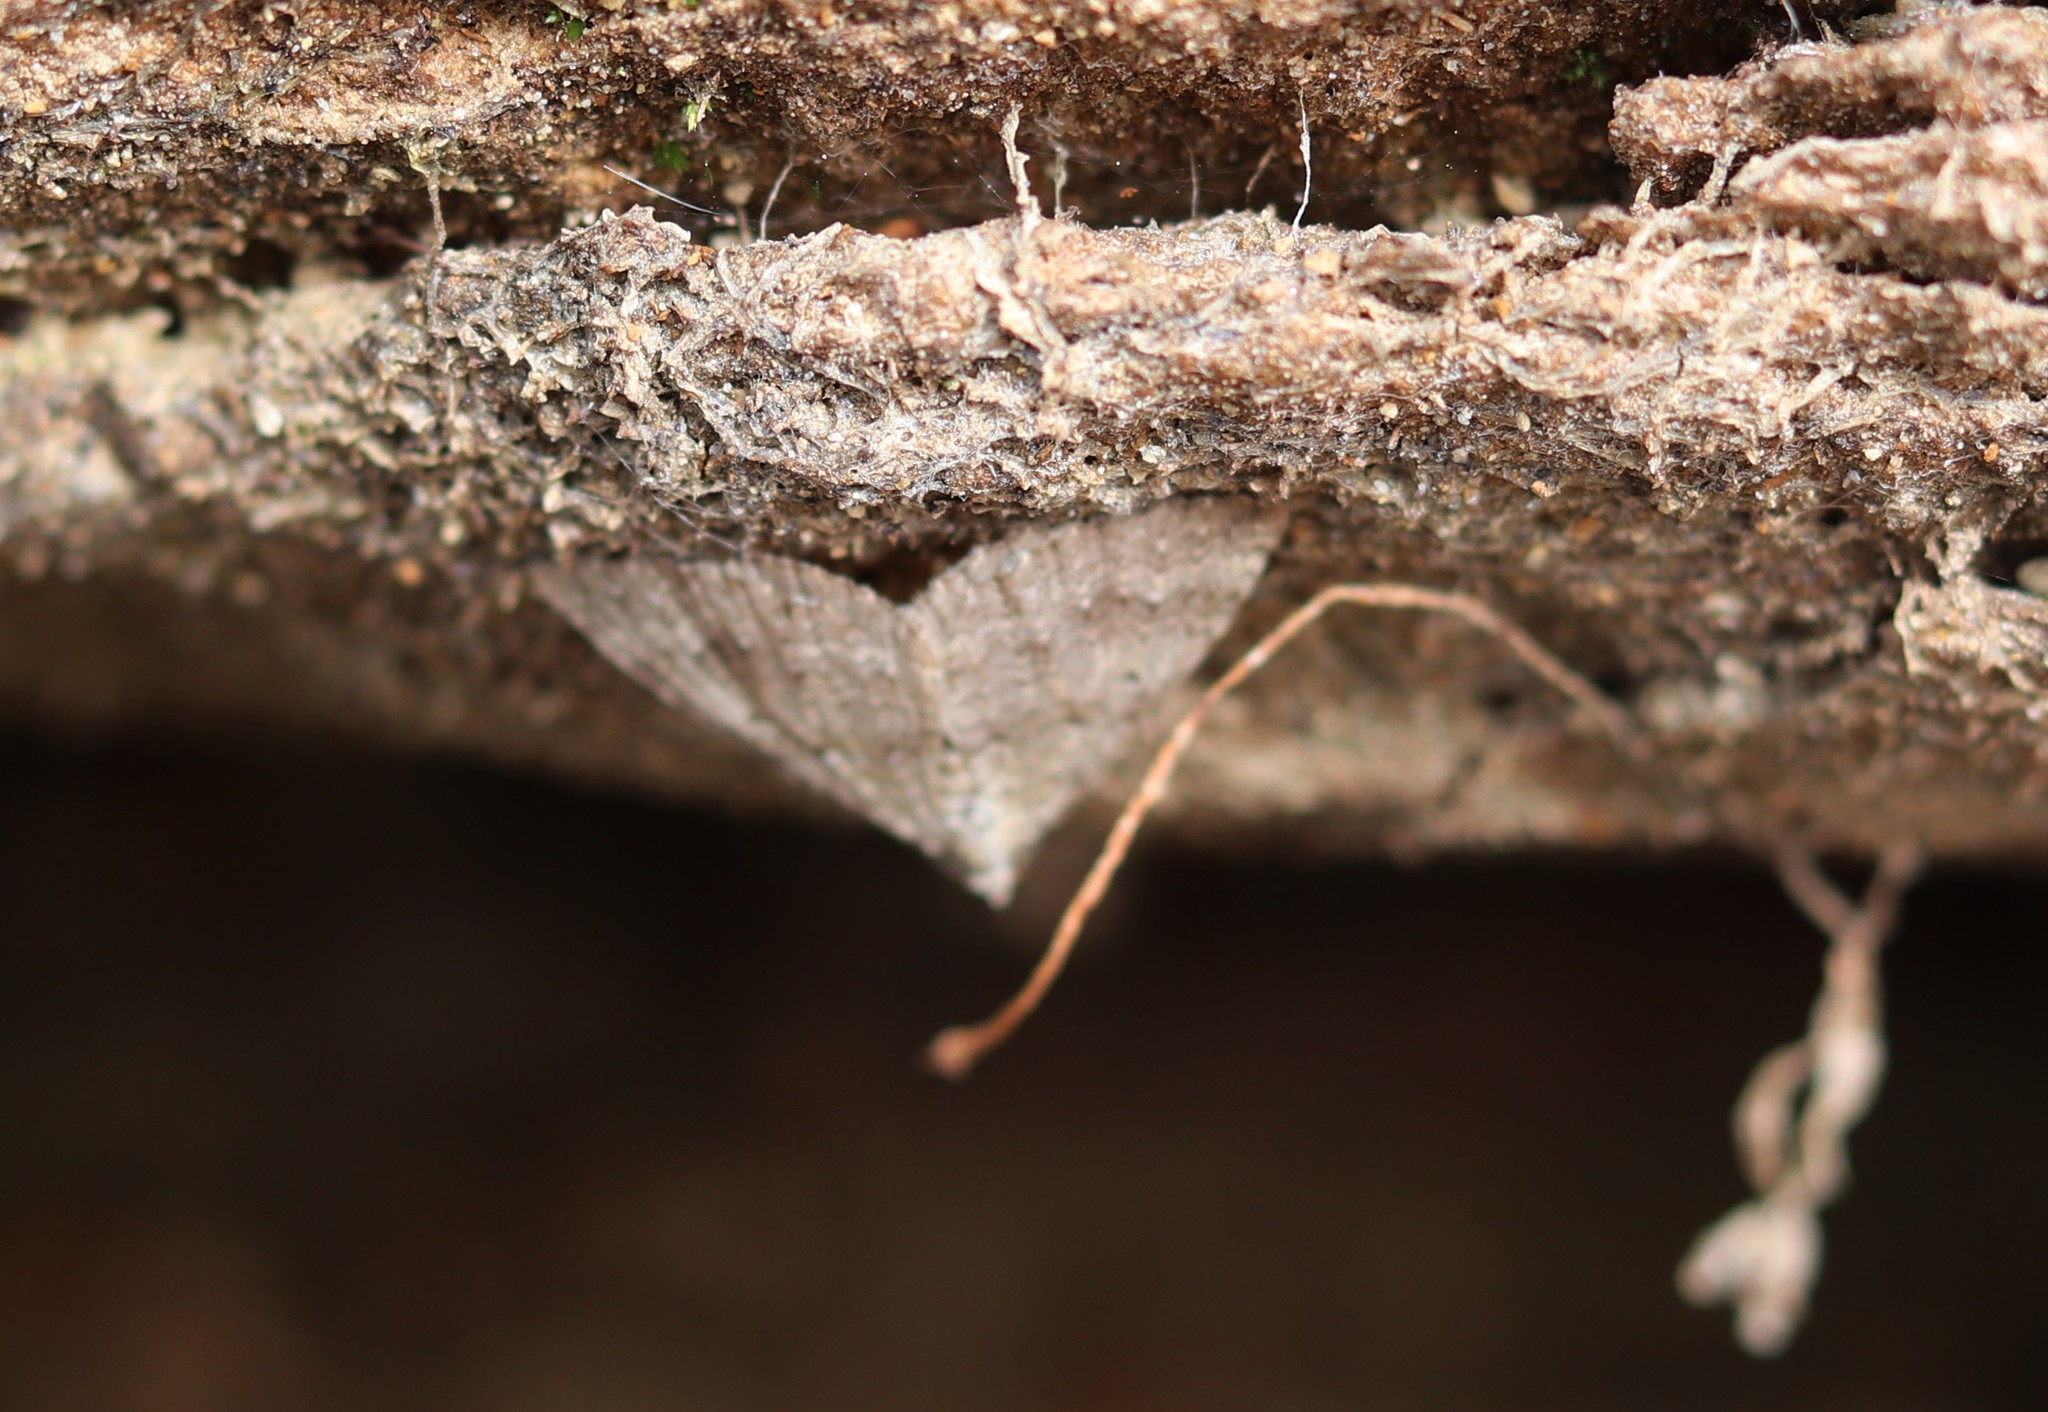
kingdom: Animalia
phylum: Arthropoda
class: Insecta
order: Lepidoptera
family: Geometridae
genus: Helastia
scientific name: Helastia corcularia
